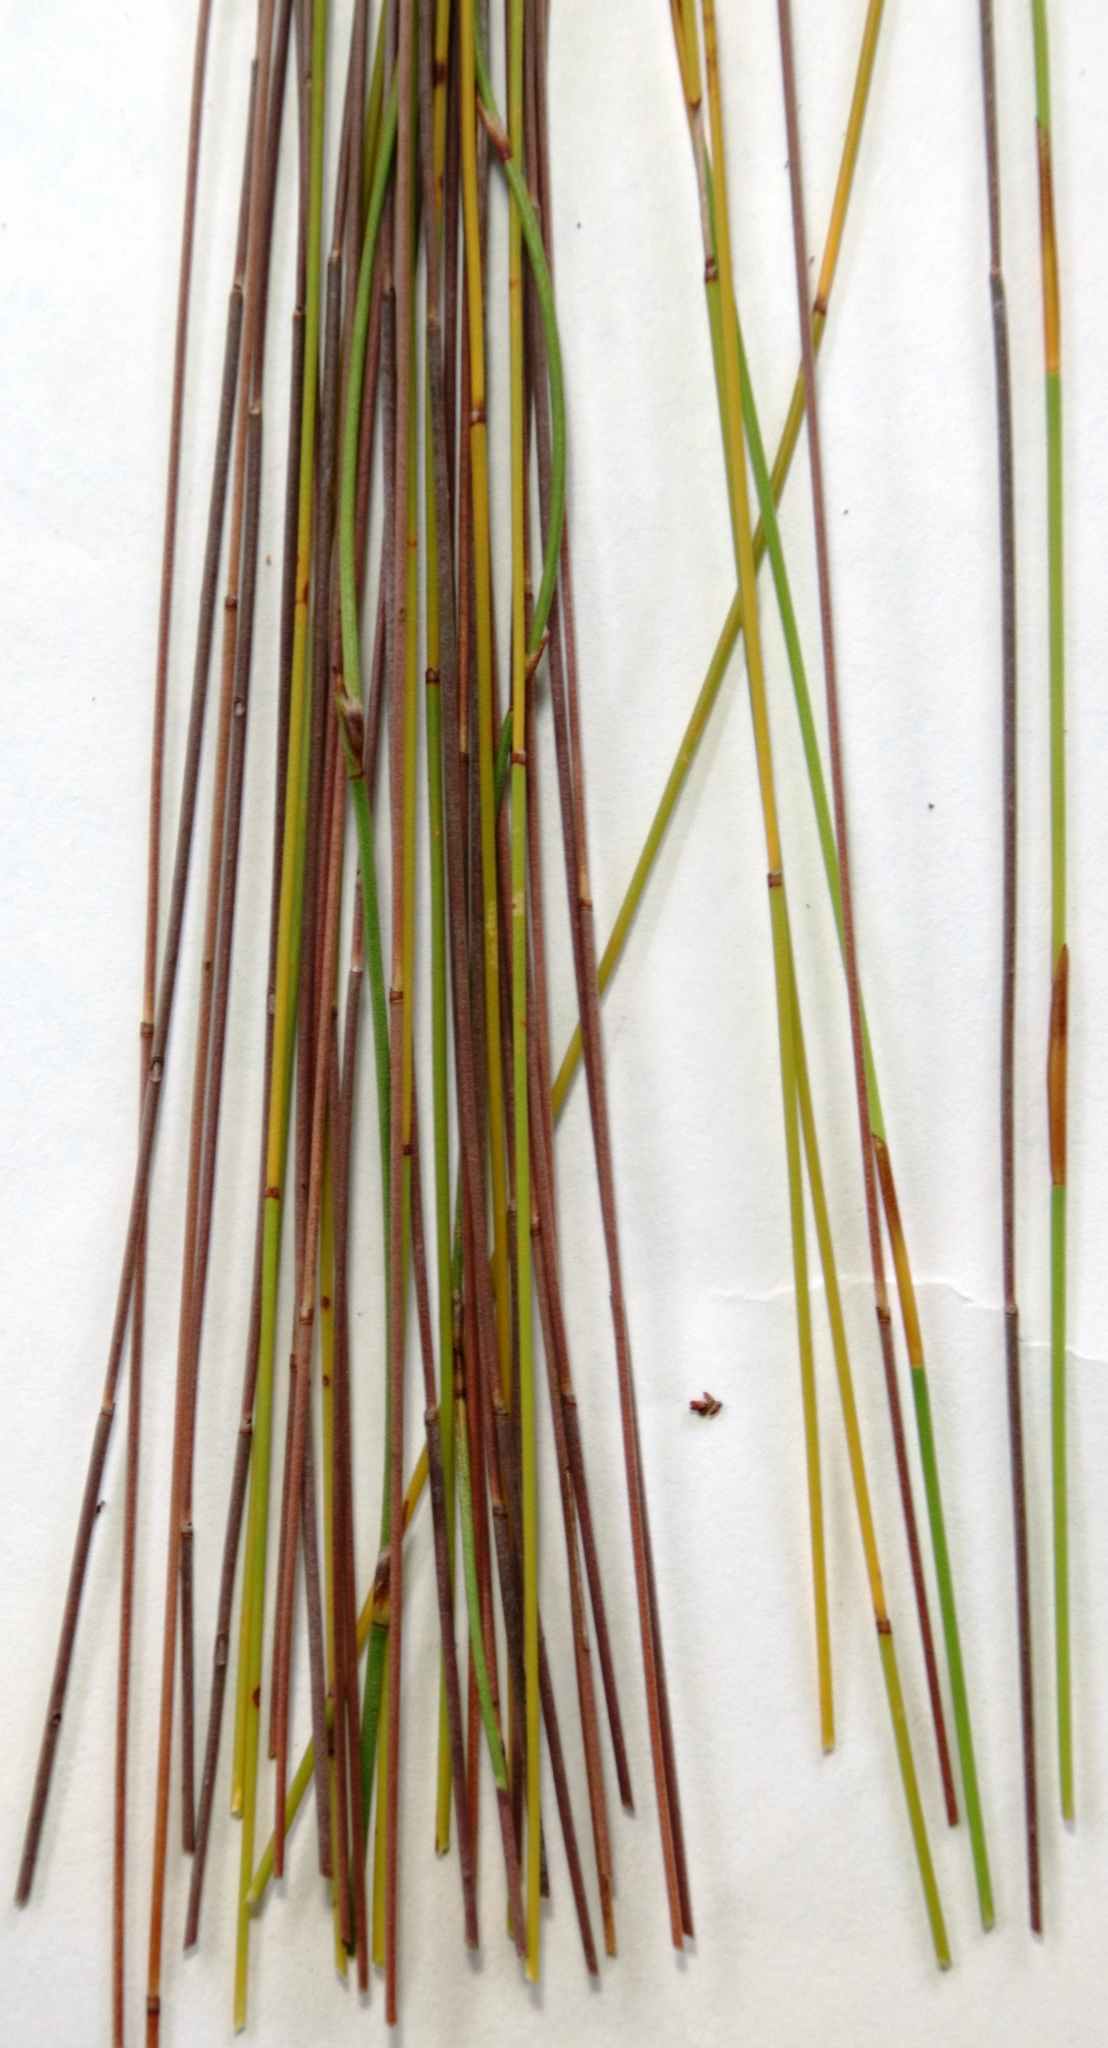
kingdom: Plantae
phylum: Tracheophyta
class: Liliopsida
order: Poales
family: Restionaceae
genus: Elegia
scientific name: Elegia filacea
